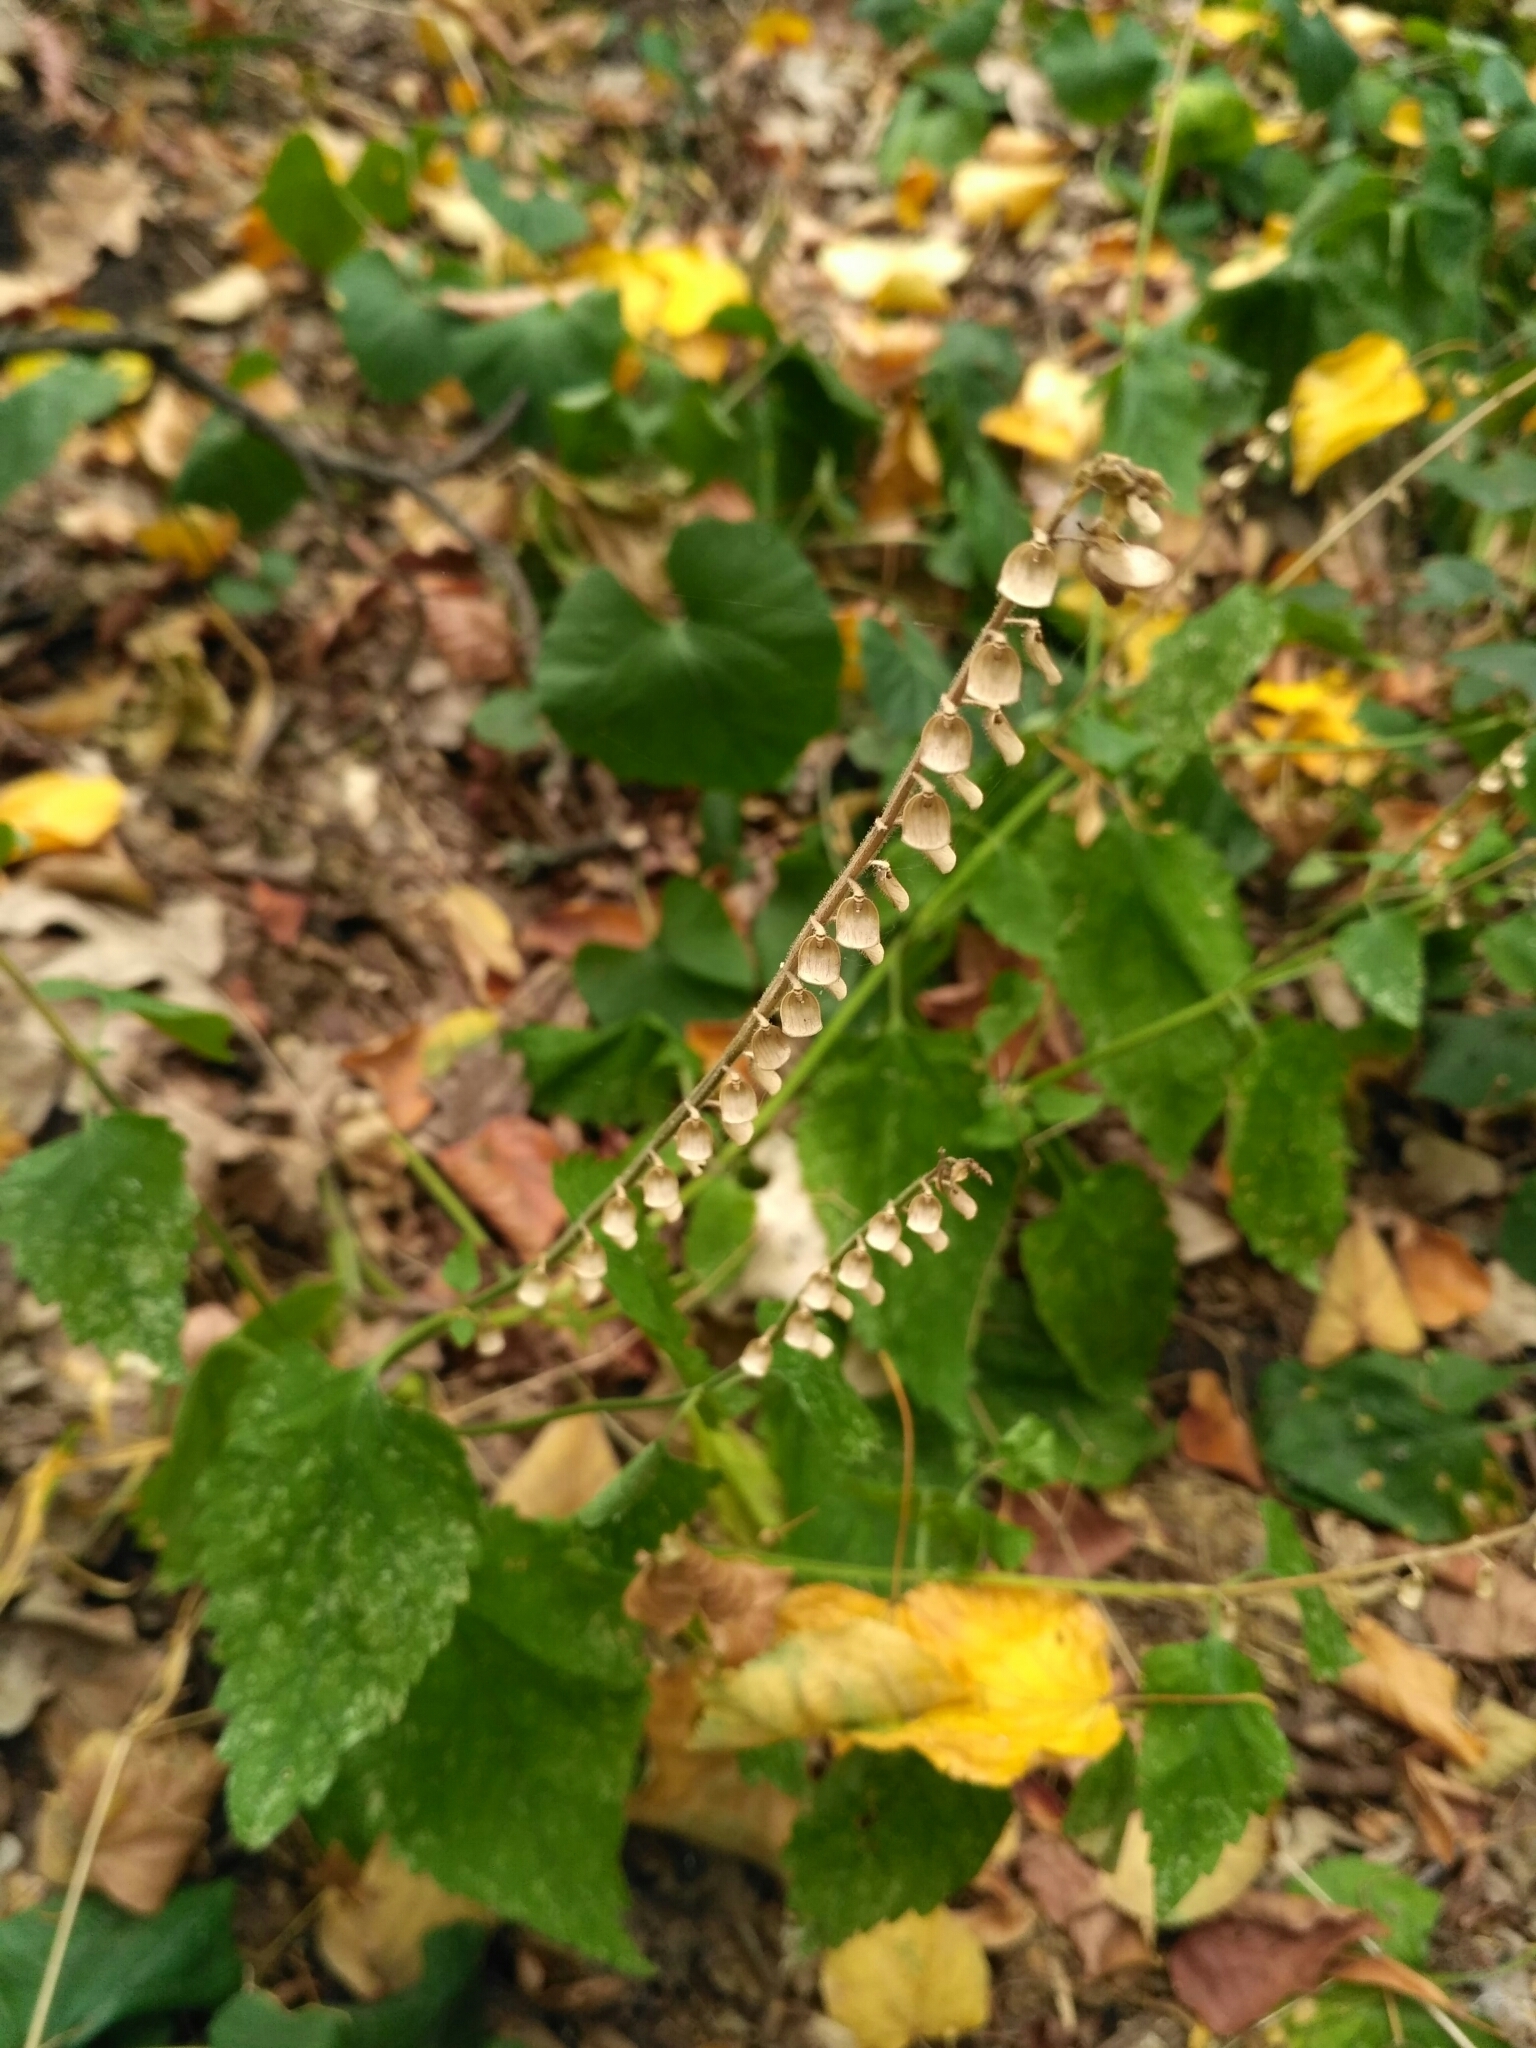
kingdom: Plantae
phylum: Tracheophyta
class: Magnoliopsida
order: Lamiales
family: Lamiaceae
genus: Scutellaria
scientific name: Scutellaria altissima
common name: Somerset skullcap
